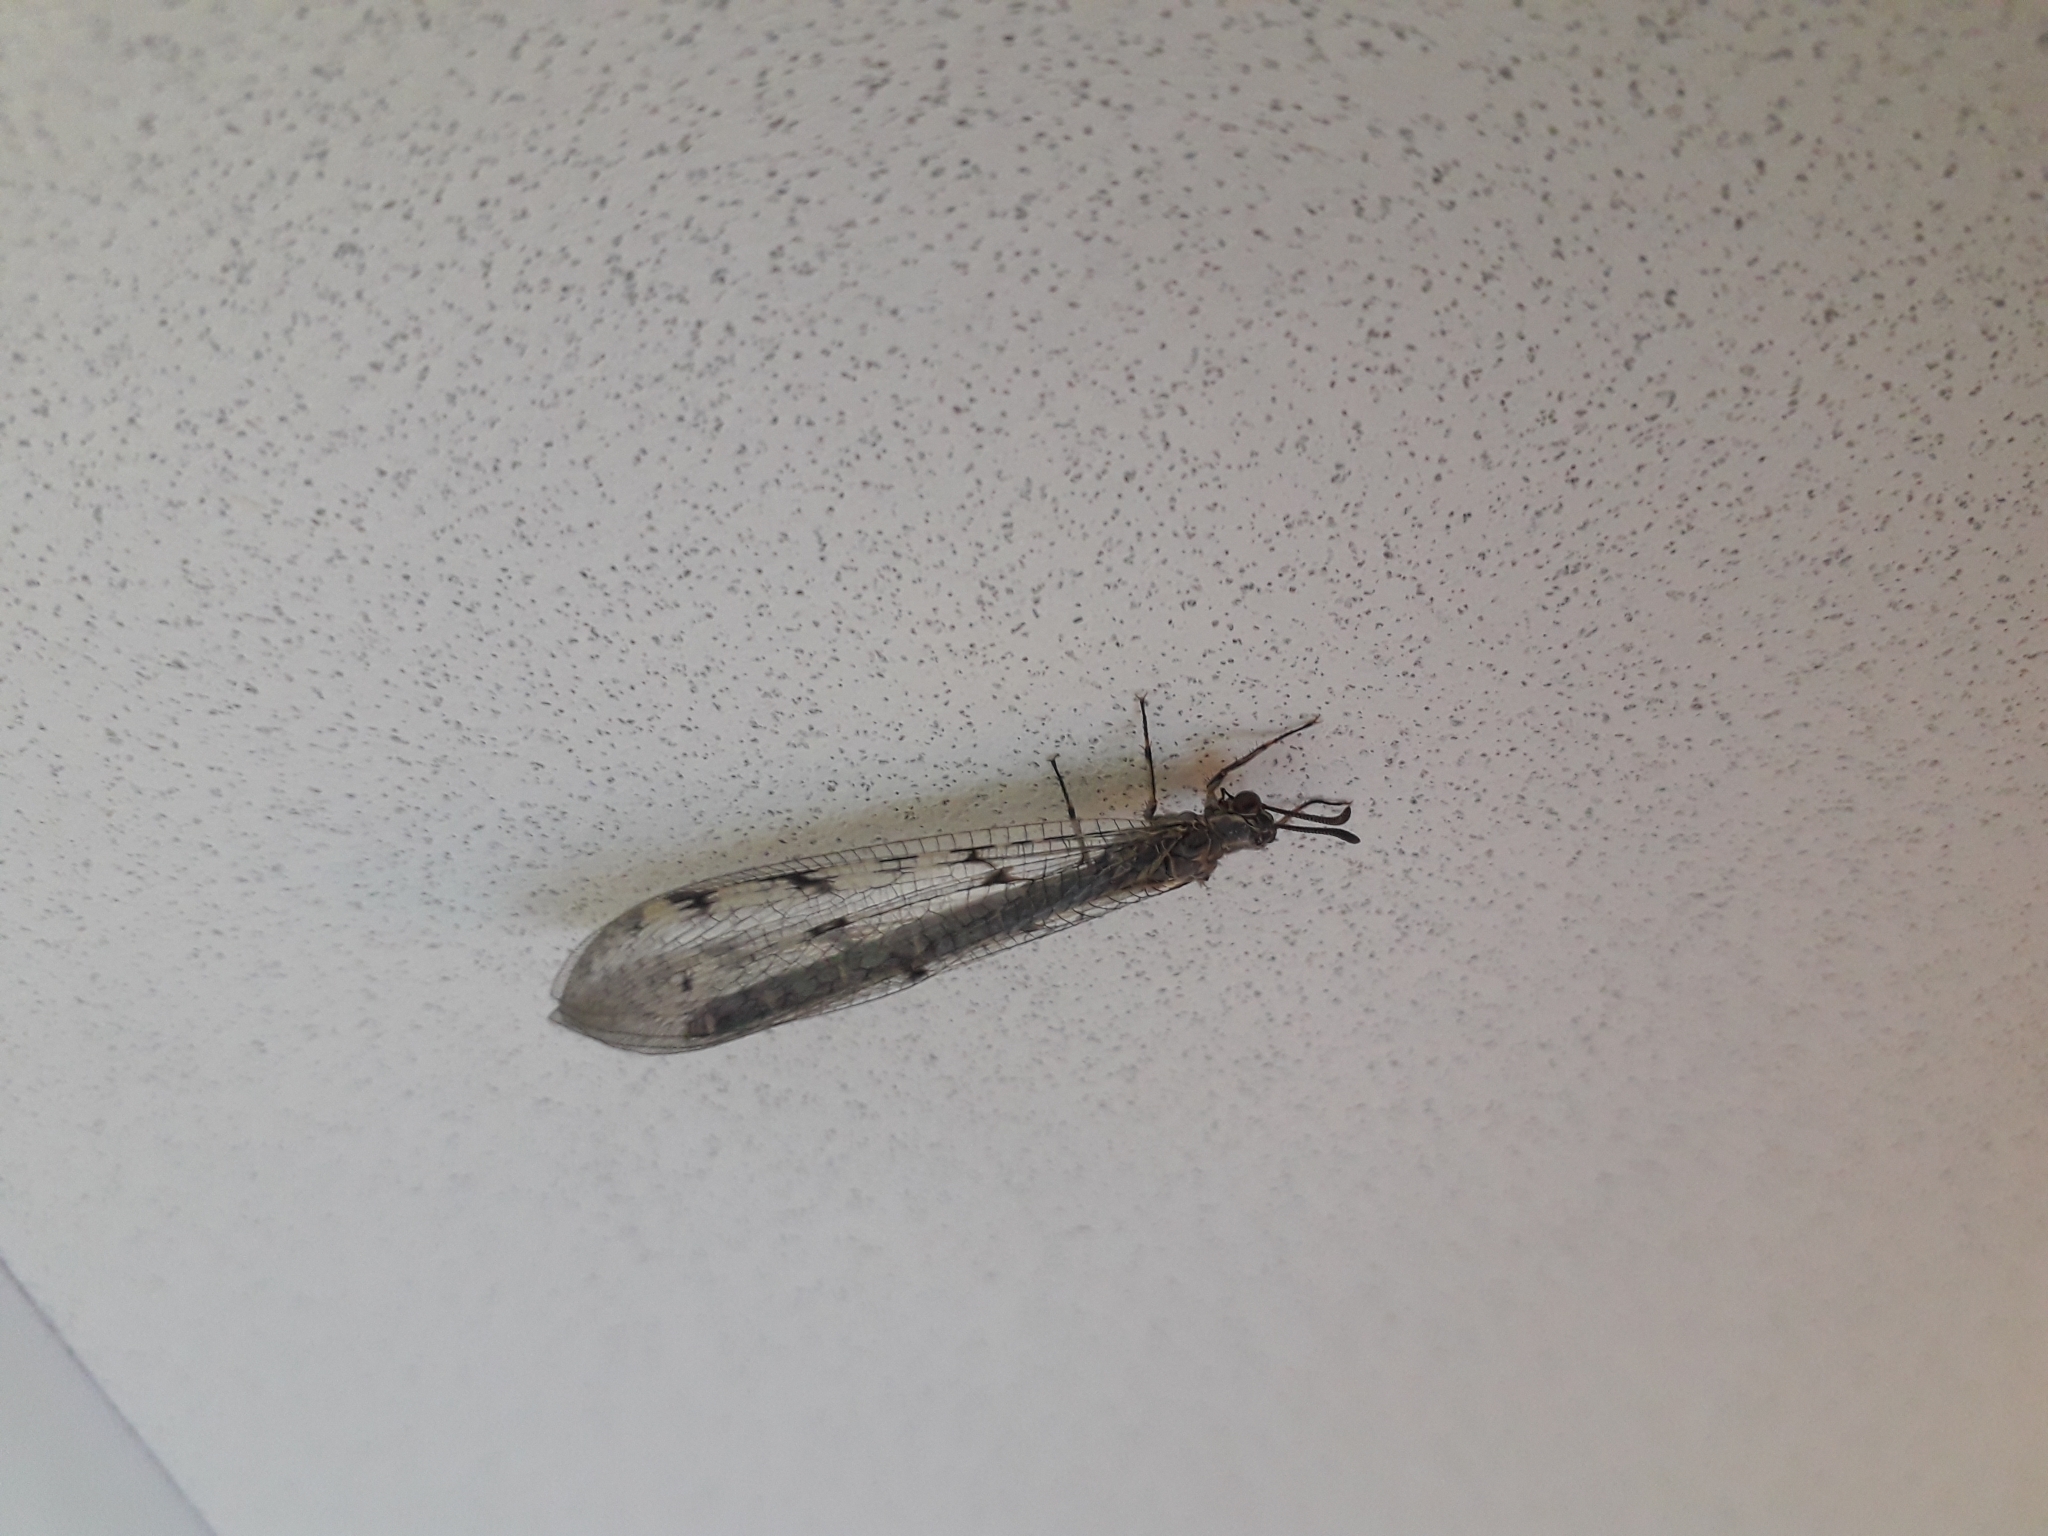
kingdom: Animalia
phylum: Arthropoda
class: Insecta
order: Neuroptera
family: Myrmeleontidae
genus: Euroleon
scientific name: Euroleon nostras
